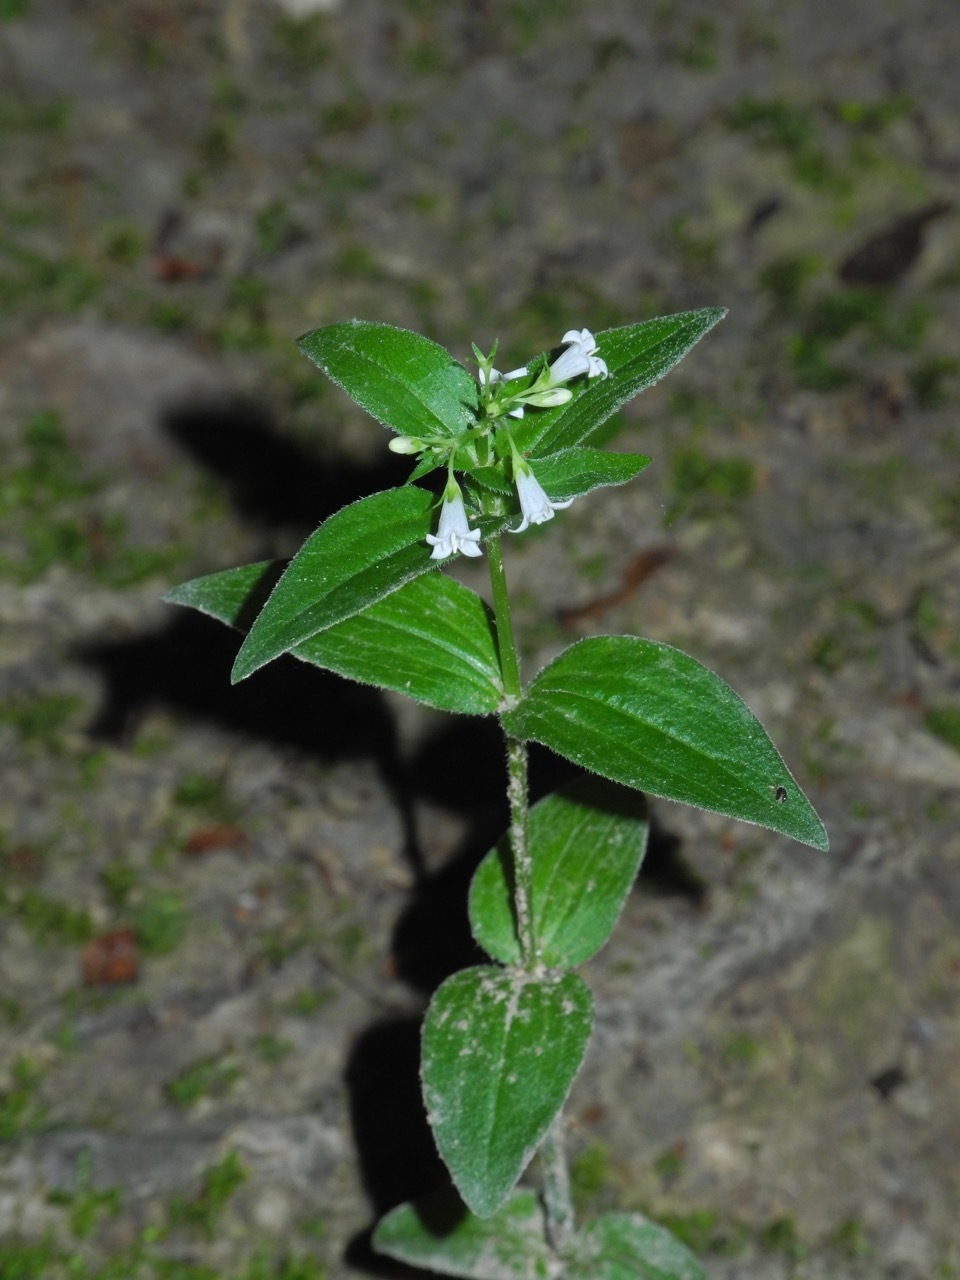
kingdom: Plantae
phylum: Tracheophyta
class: Magnoliopsida
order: Gentianales
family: Rubiaceae
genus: Houstonia
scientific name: Houstonia purpurea
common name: Summer bluet
